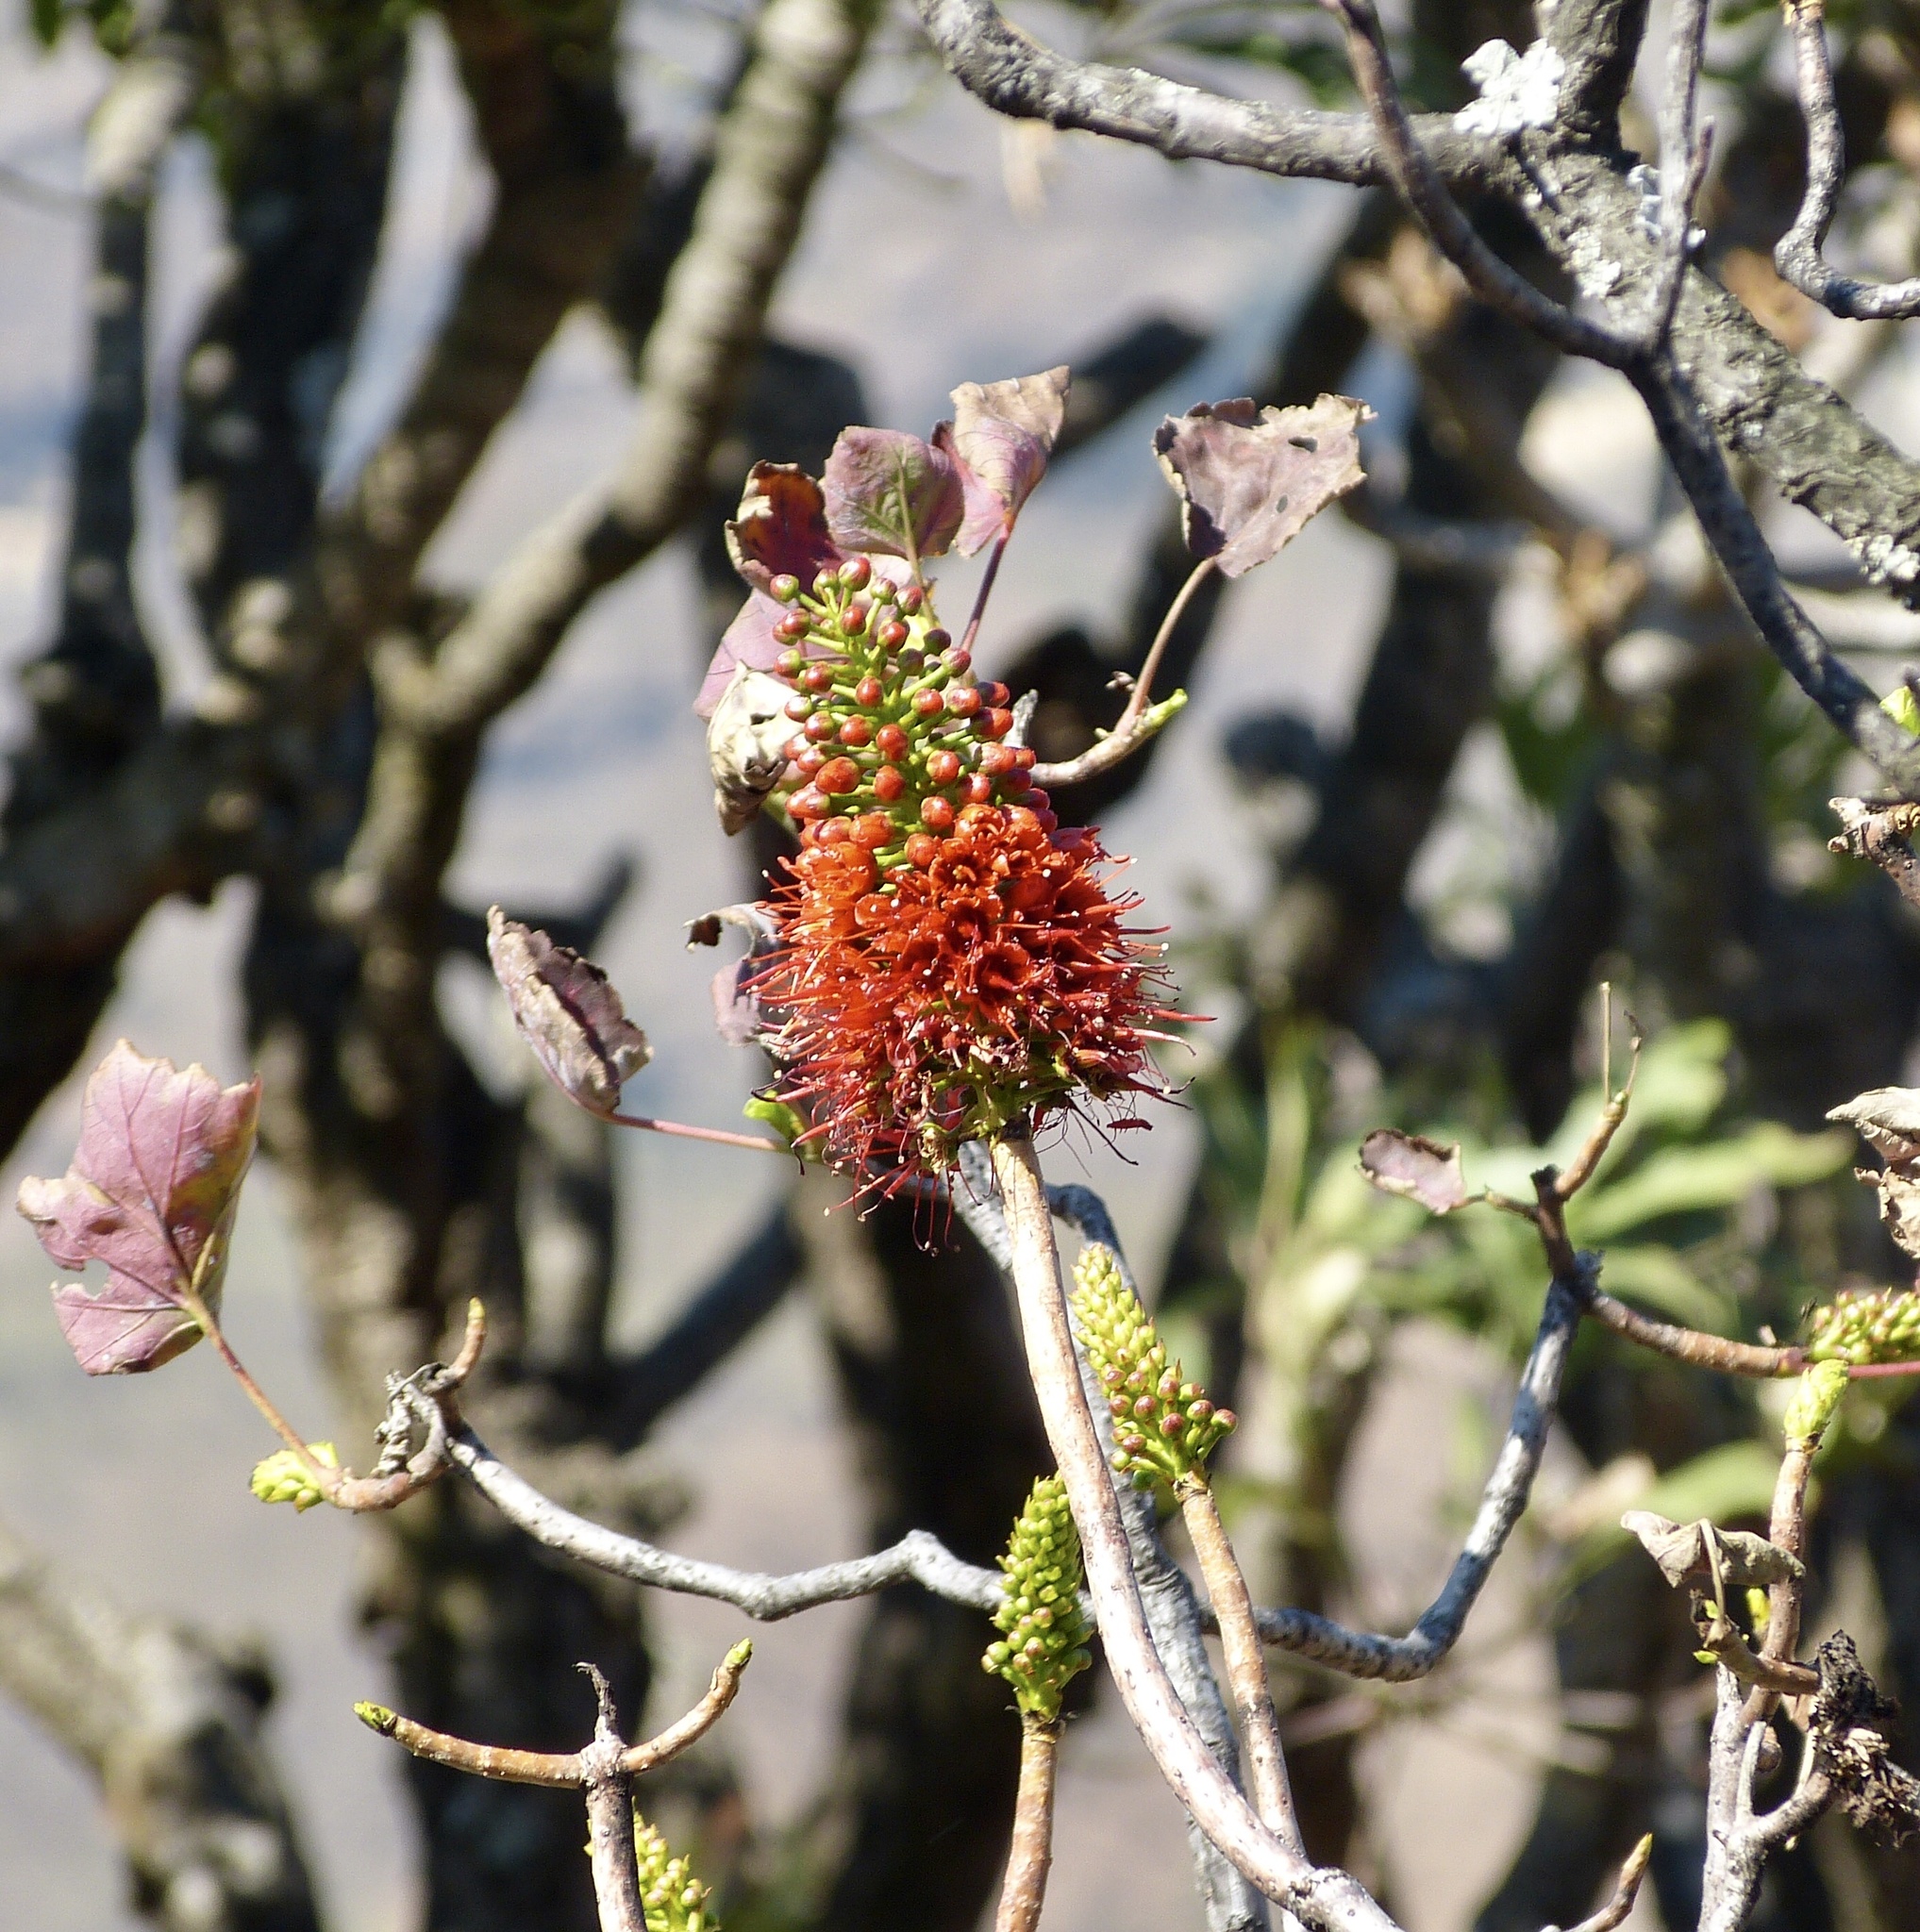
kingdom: Plantae
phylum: Tracheophyta
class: Magnoliopsida
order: Geraniales
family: Francoaceae
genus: Greyia
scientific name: Greyia sutherlandii
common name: Glossy bottlebrush
